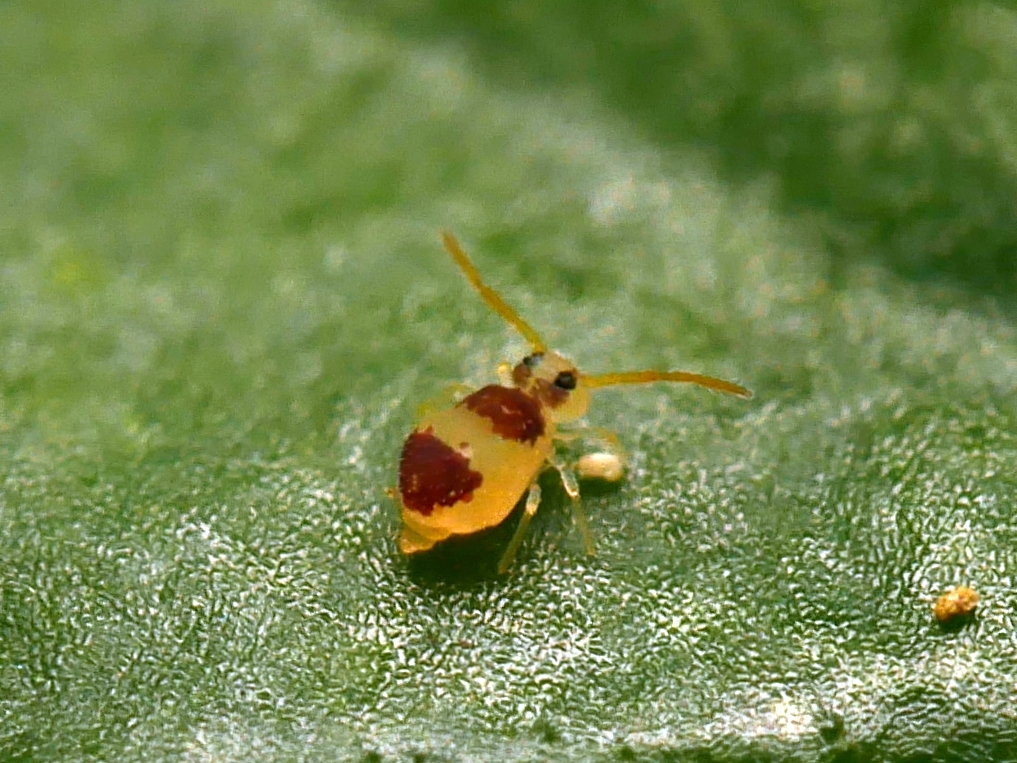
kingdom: Animalia
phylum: Arthropoda
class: Collembola
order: Symphypleona
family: Bourletiellidae
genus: Deuterosminthurus
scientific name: Deuterosminthurus bicinctus
